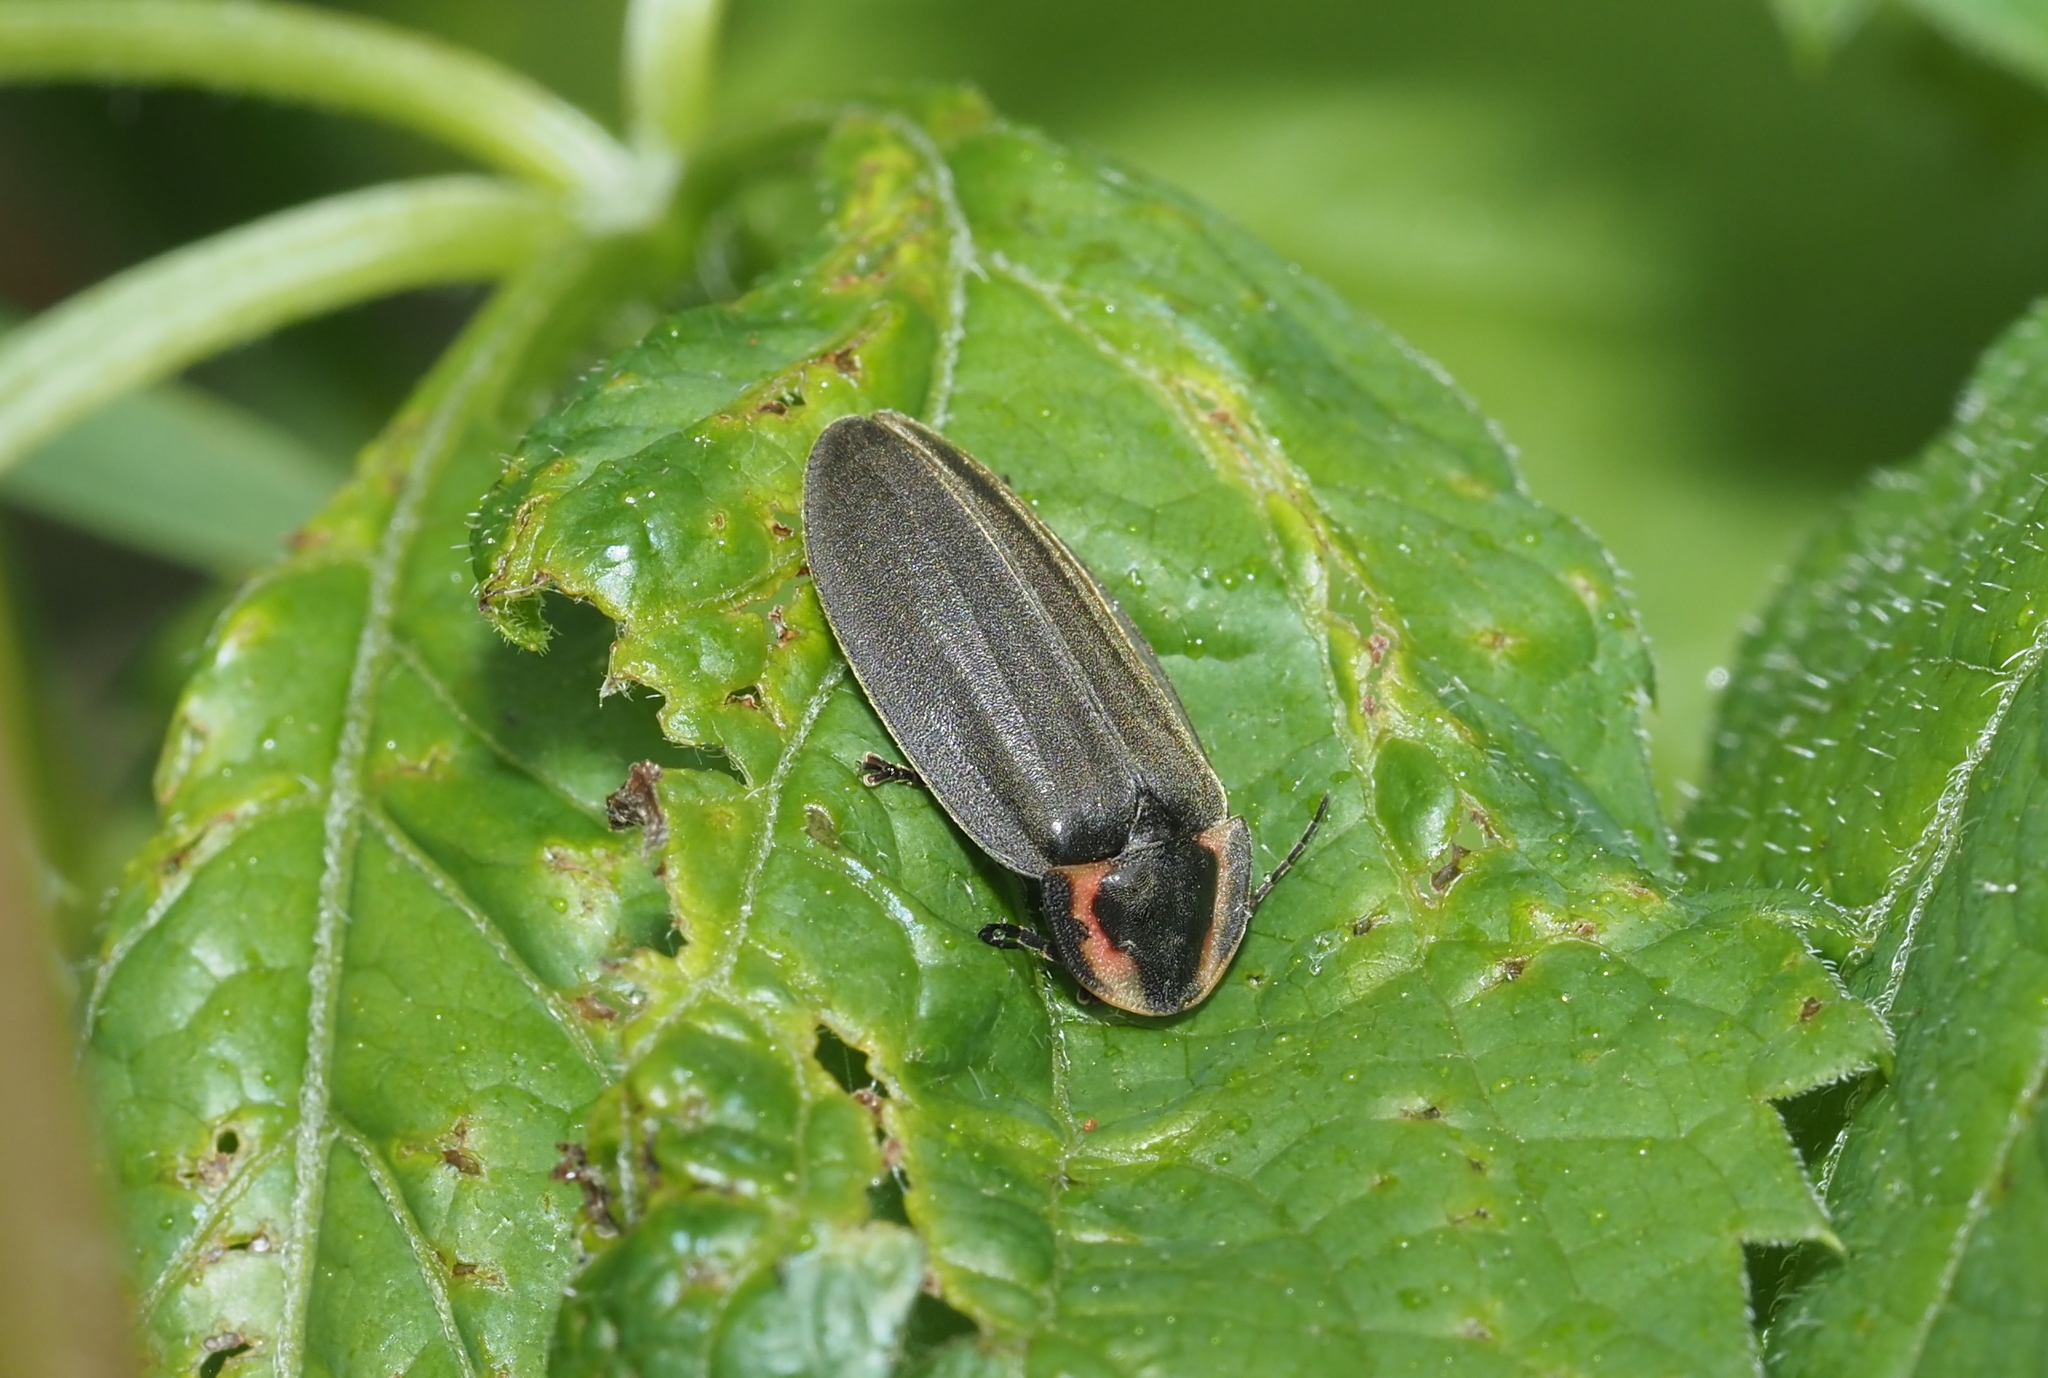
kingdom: Animalia
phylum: Arthropoda
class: Insecta
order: Coleoptera
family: Lampyridae
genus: Photinus
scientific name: Photinus corrusca
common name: Winter firefly
